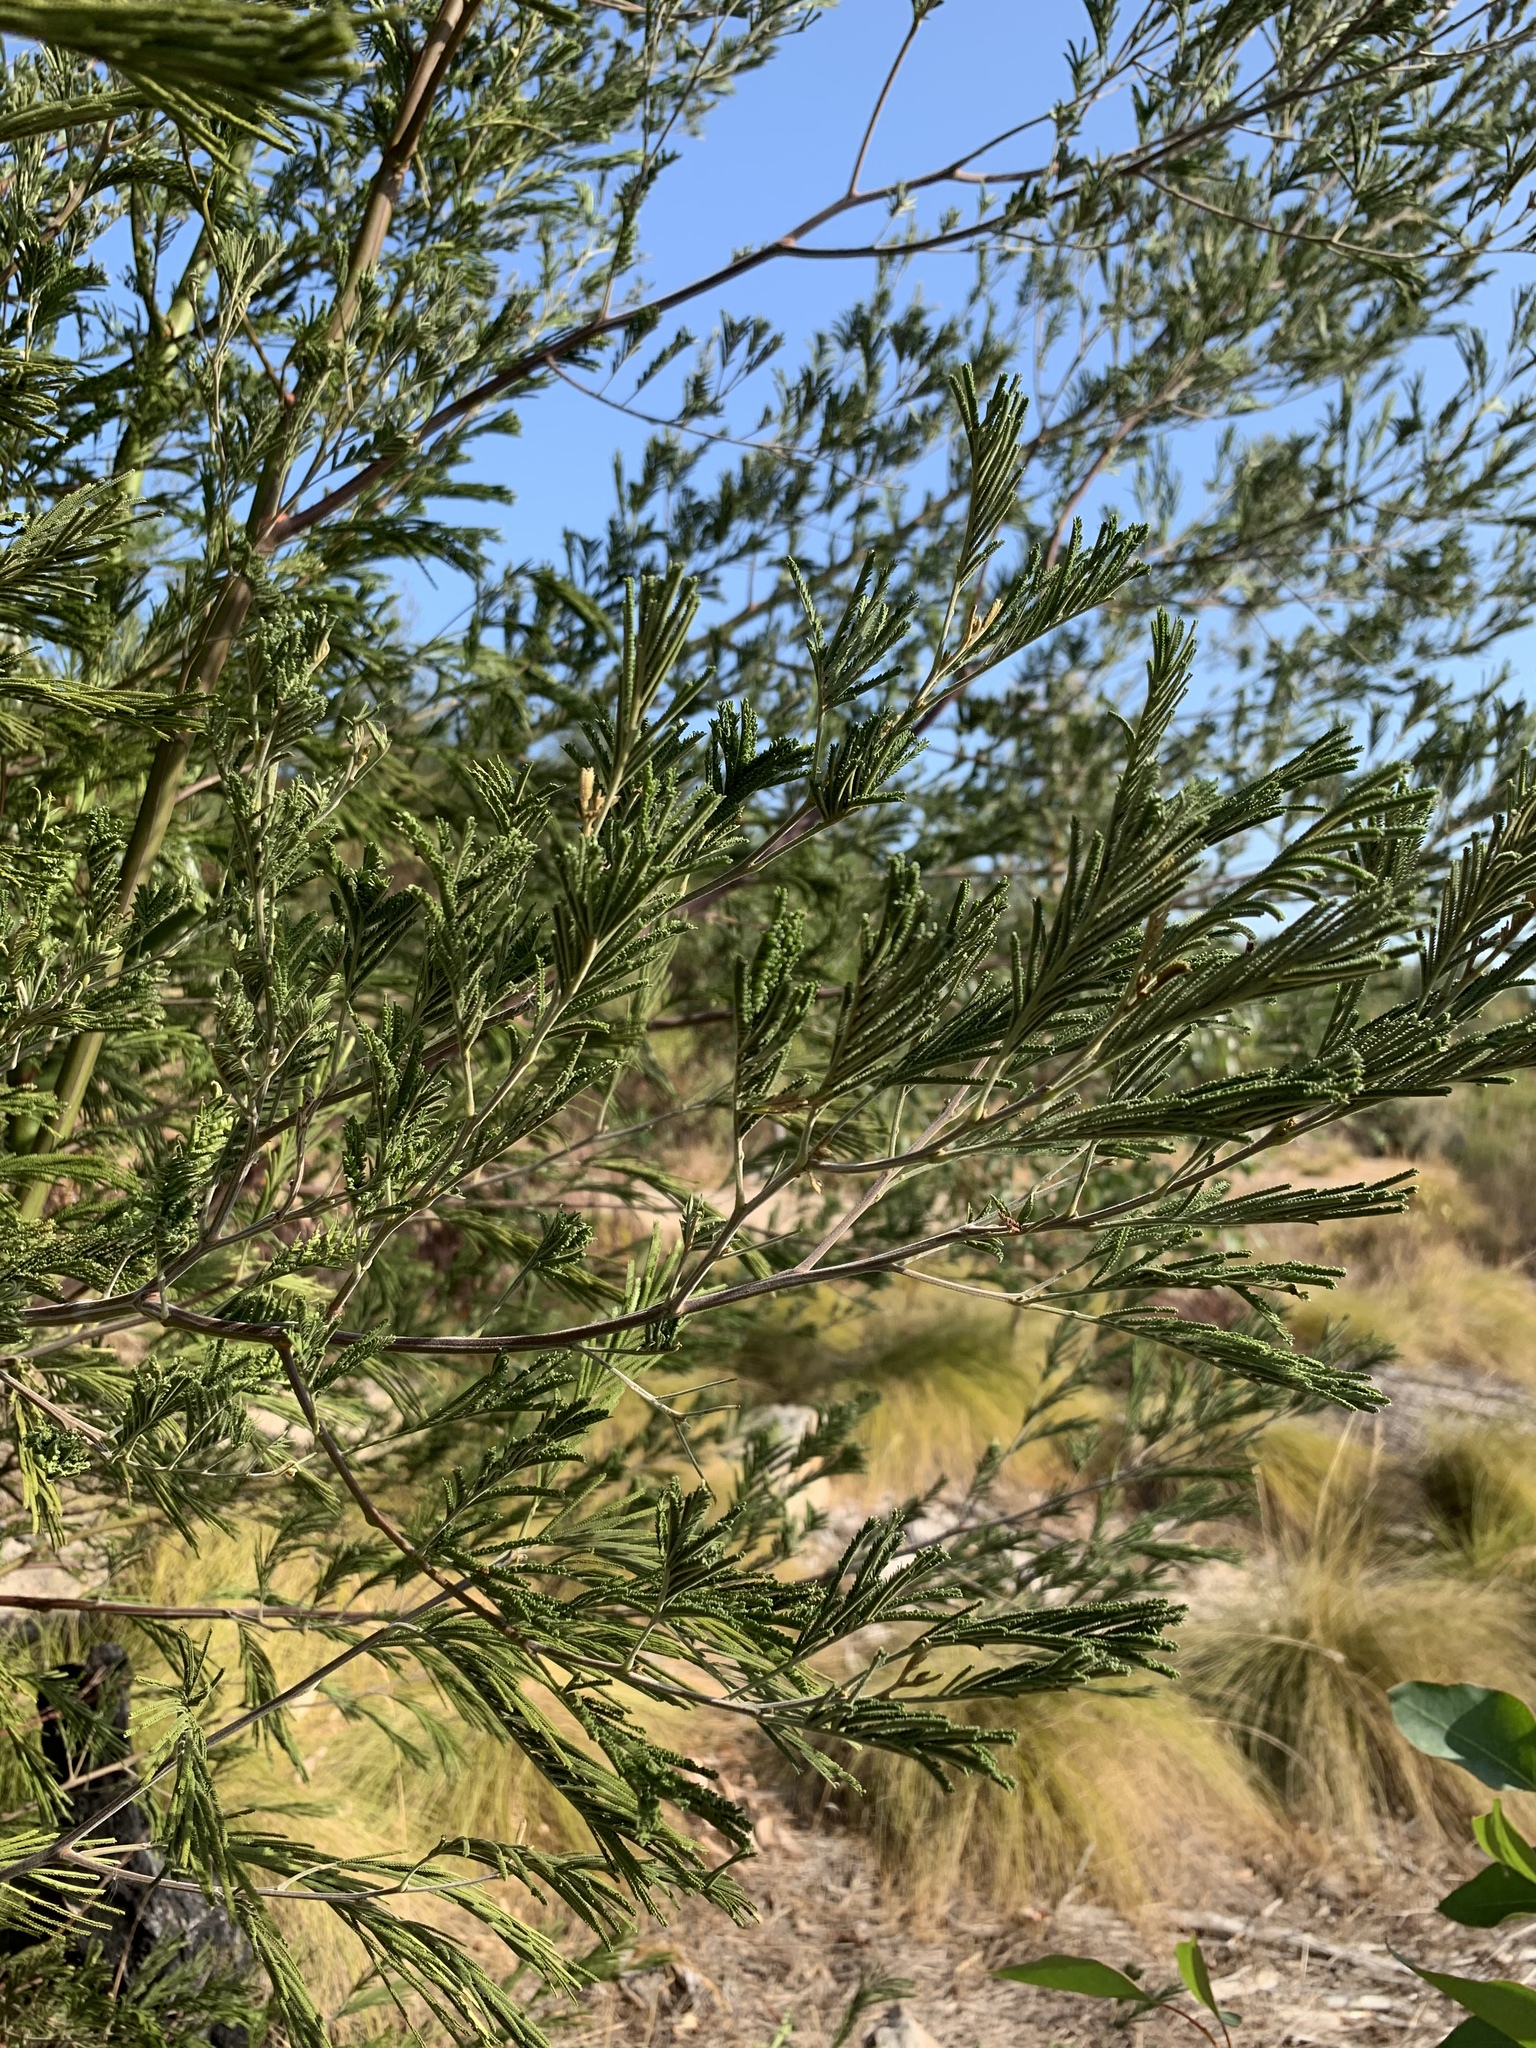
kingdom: Plantae
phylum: Tracheophyta
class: Magnoliopsida
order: Fabales
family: Fabaceae
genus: Acacia
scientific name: Acacia mearnsii
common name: Black wattle
